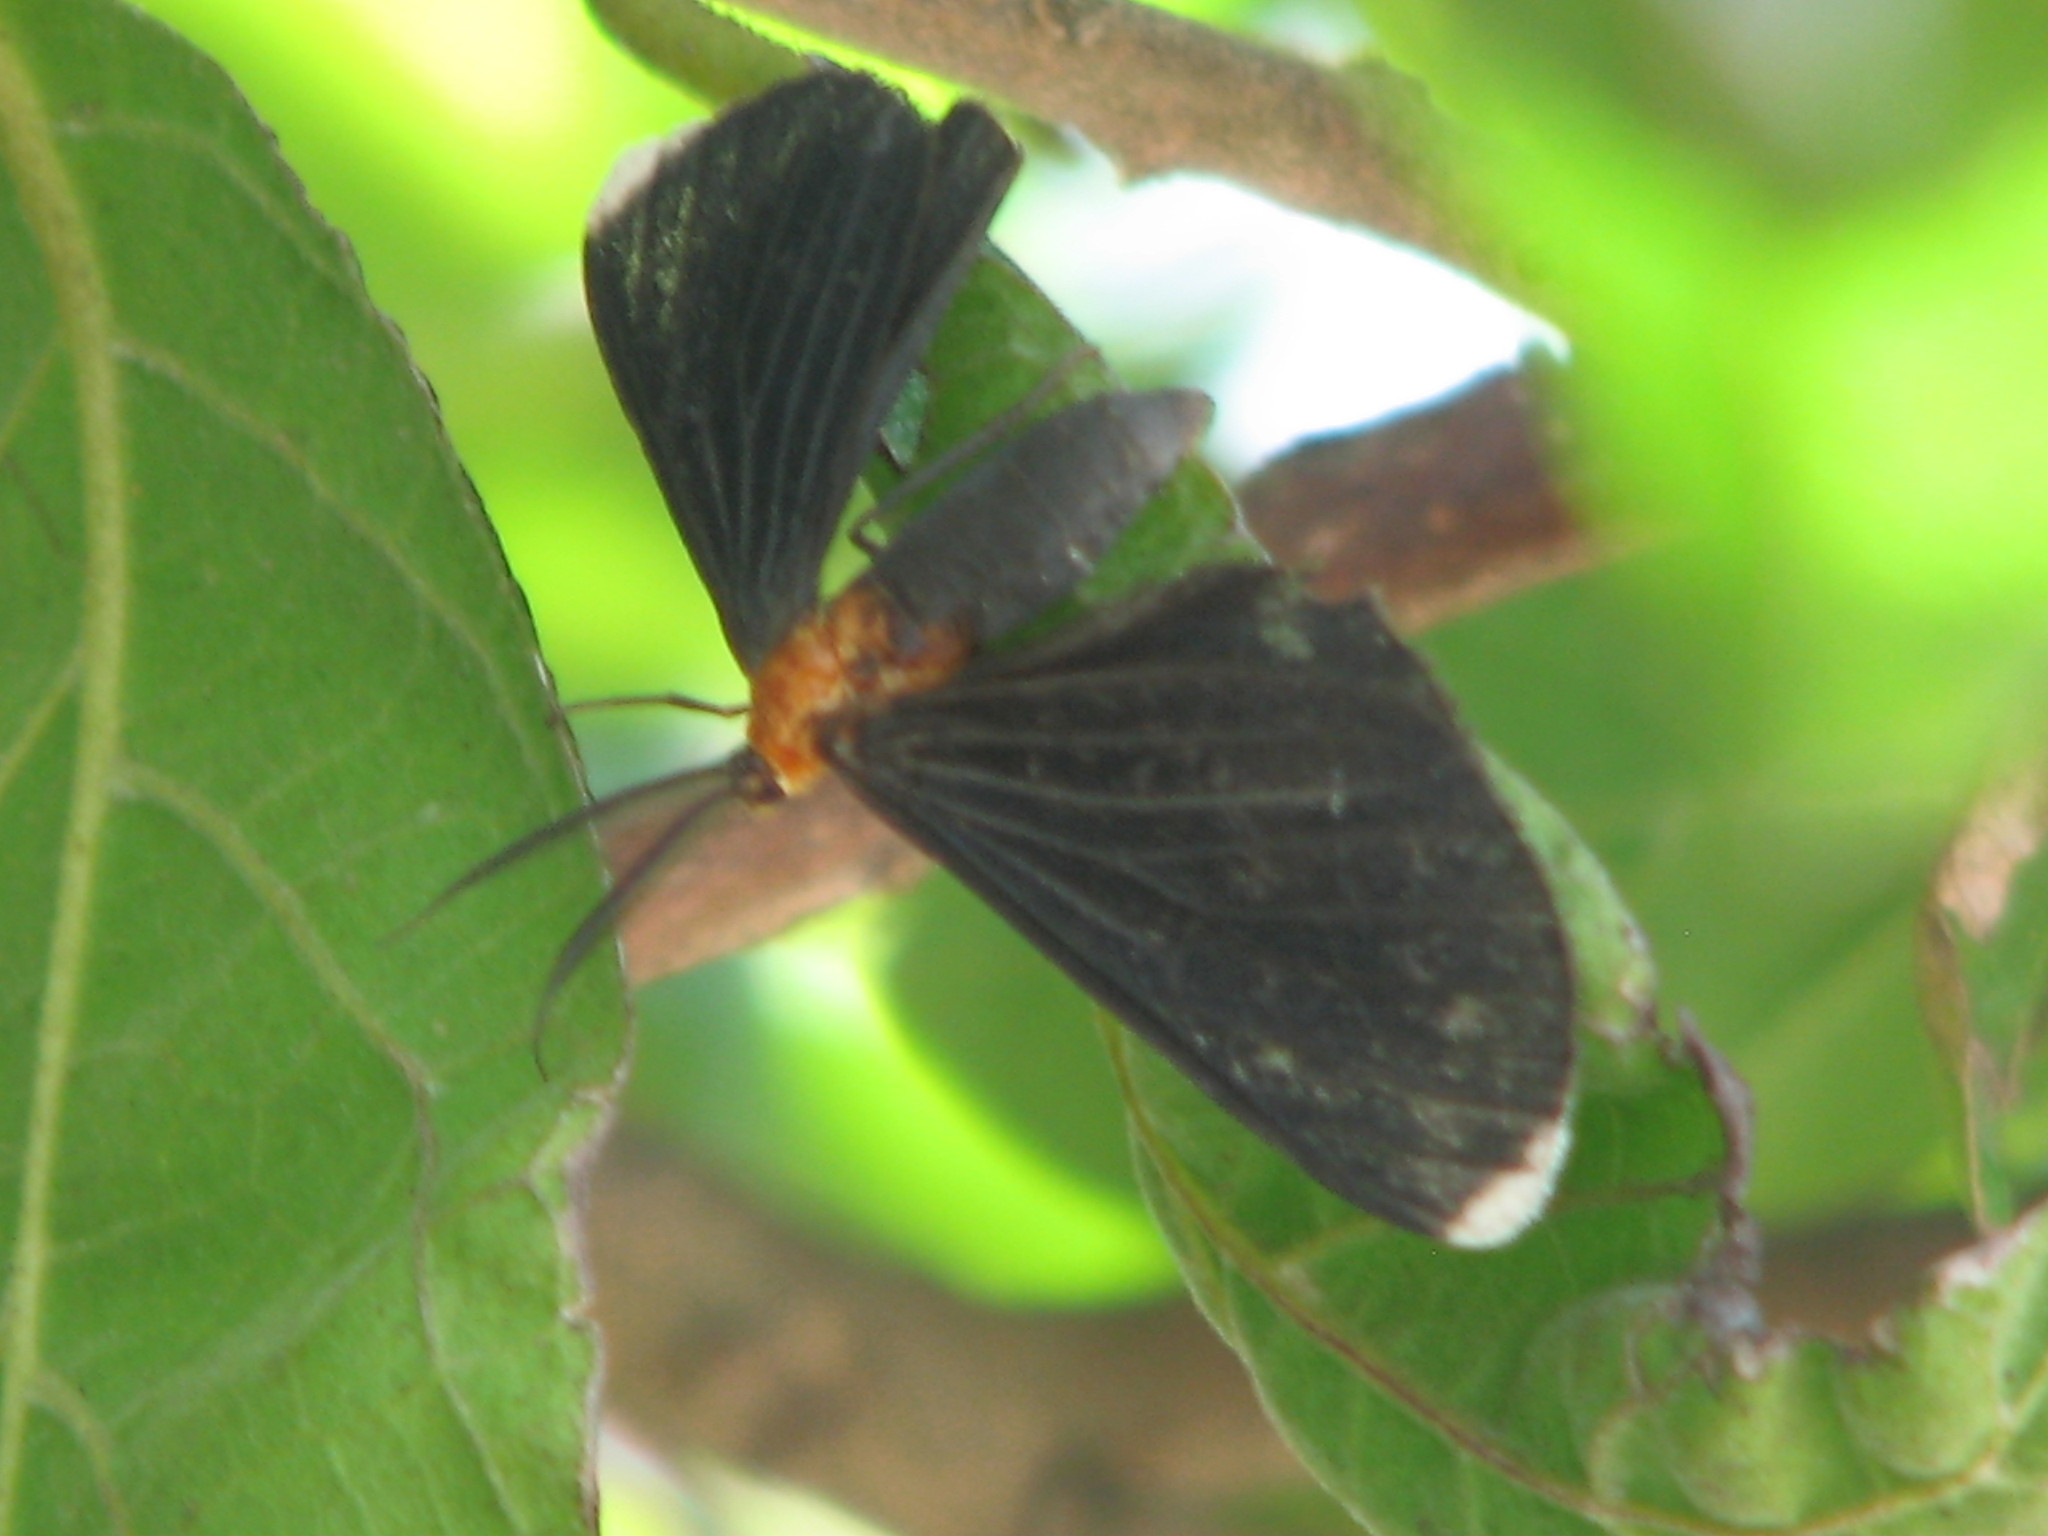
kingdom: Animalia
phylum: Arthropoda
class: Insecta
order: Lepidoptera
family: Geometridae
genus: Melanchroia
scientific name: Melanchroia chephise
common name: White-tipped black
